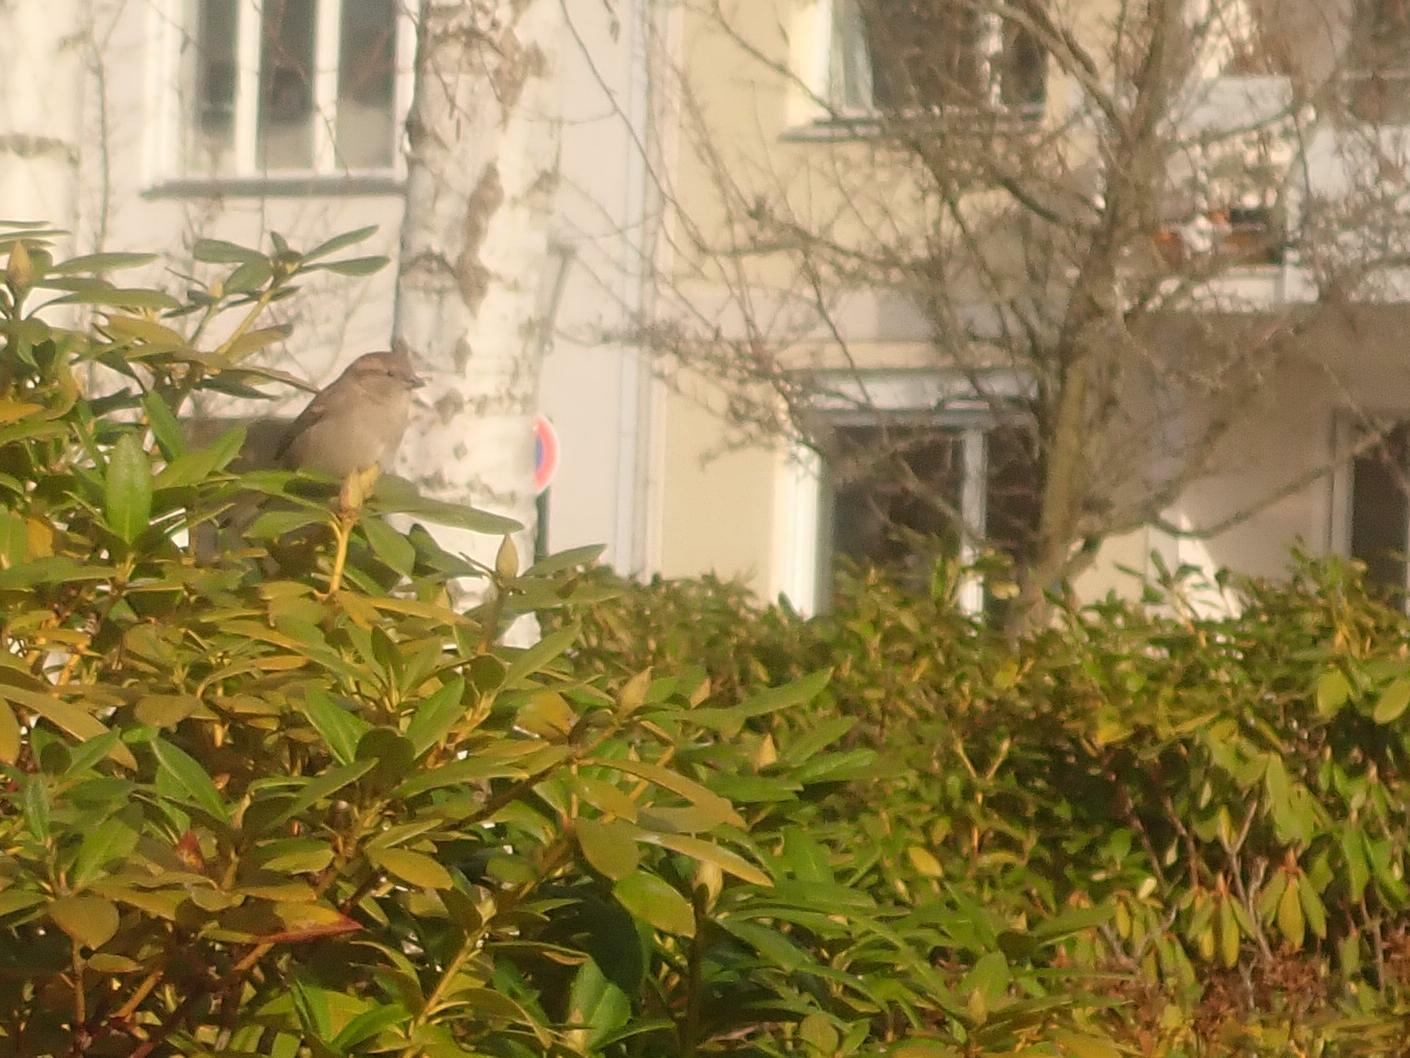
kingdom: Animalia
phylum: Chordata
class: Aves
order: Passeriformes
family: Passeridae
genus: Passer
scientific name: Passer domesticus
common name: House sparrow
